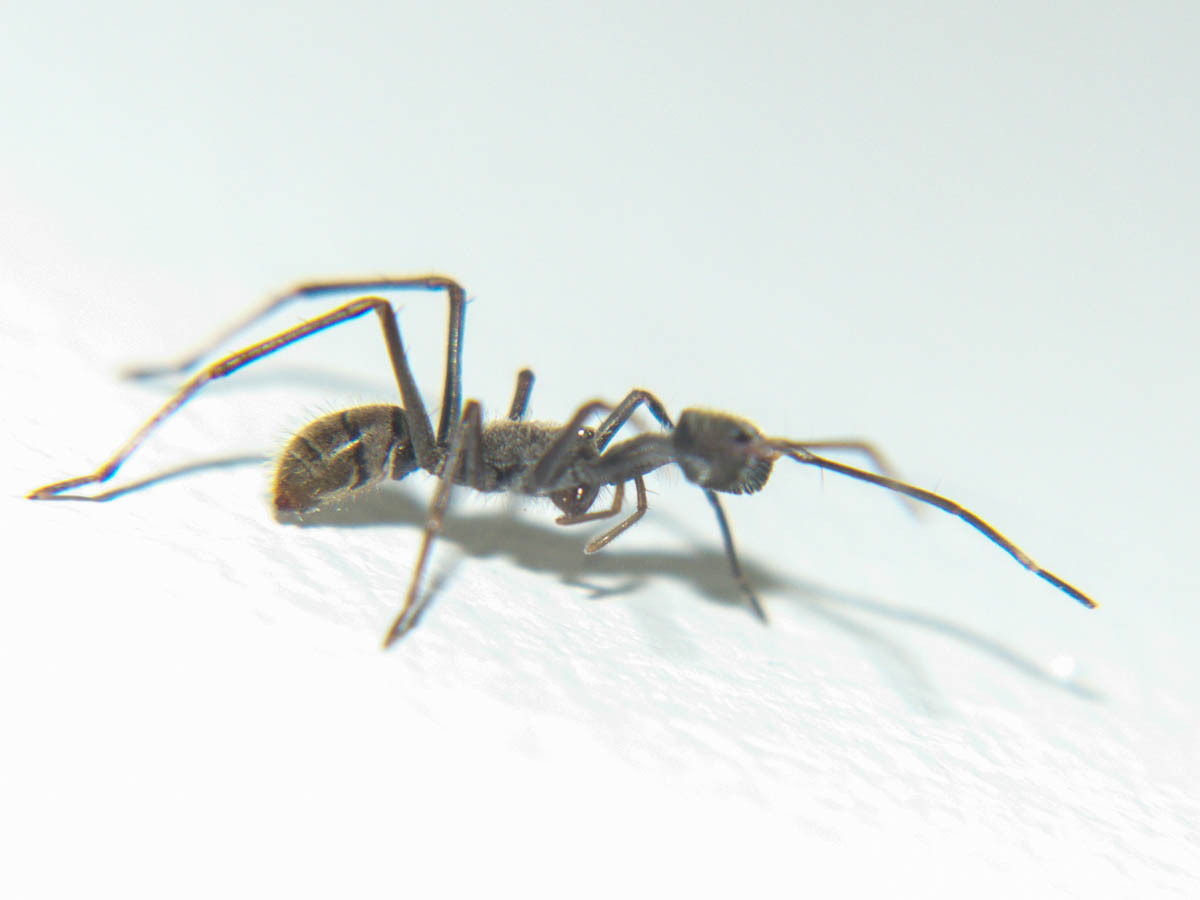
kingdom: Animalia
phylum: Arthropoda
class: Arachnida
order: Araneae
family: Corinnidae
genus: Pranburia
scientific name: Pranburia mahannopi
